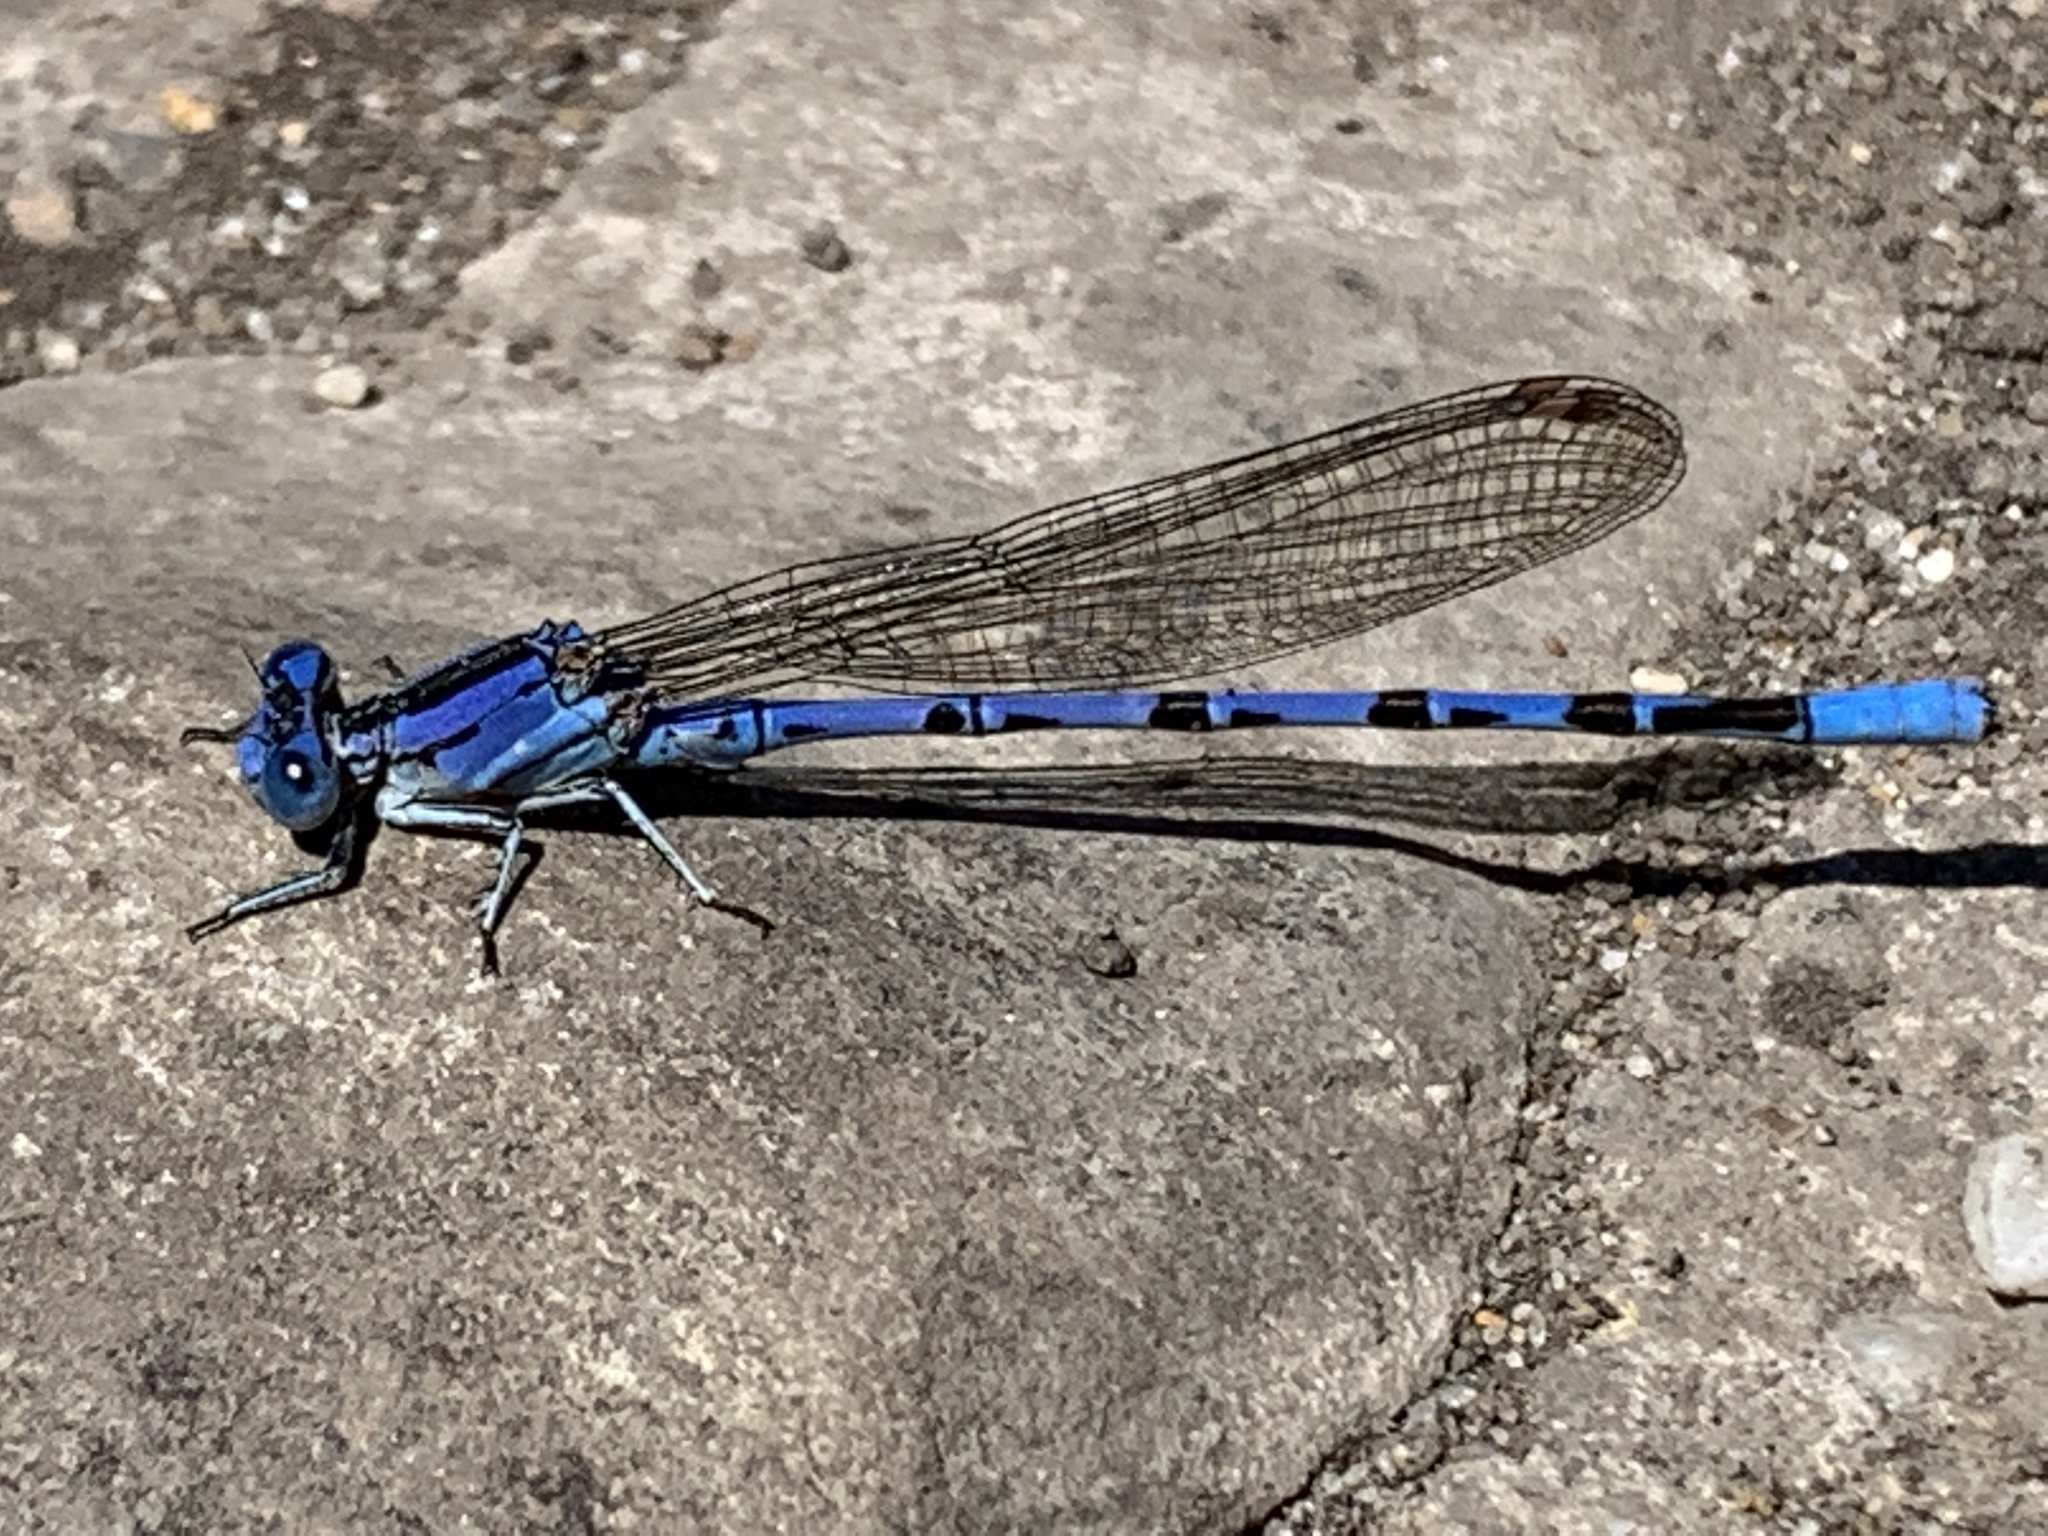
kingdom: Animalia
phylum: Arthropoda
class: Insecta
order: Odonata
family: Coenagrionidae
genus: Argia
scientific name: Argia vivida
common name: Vivid dancer
